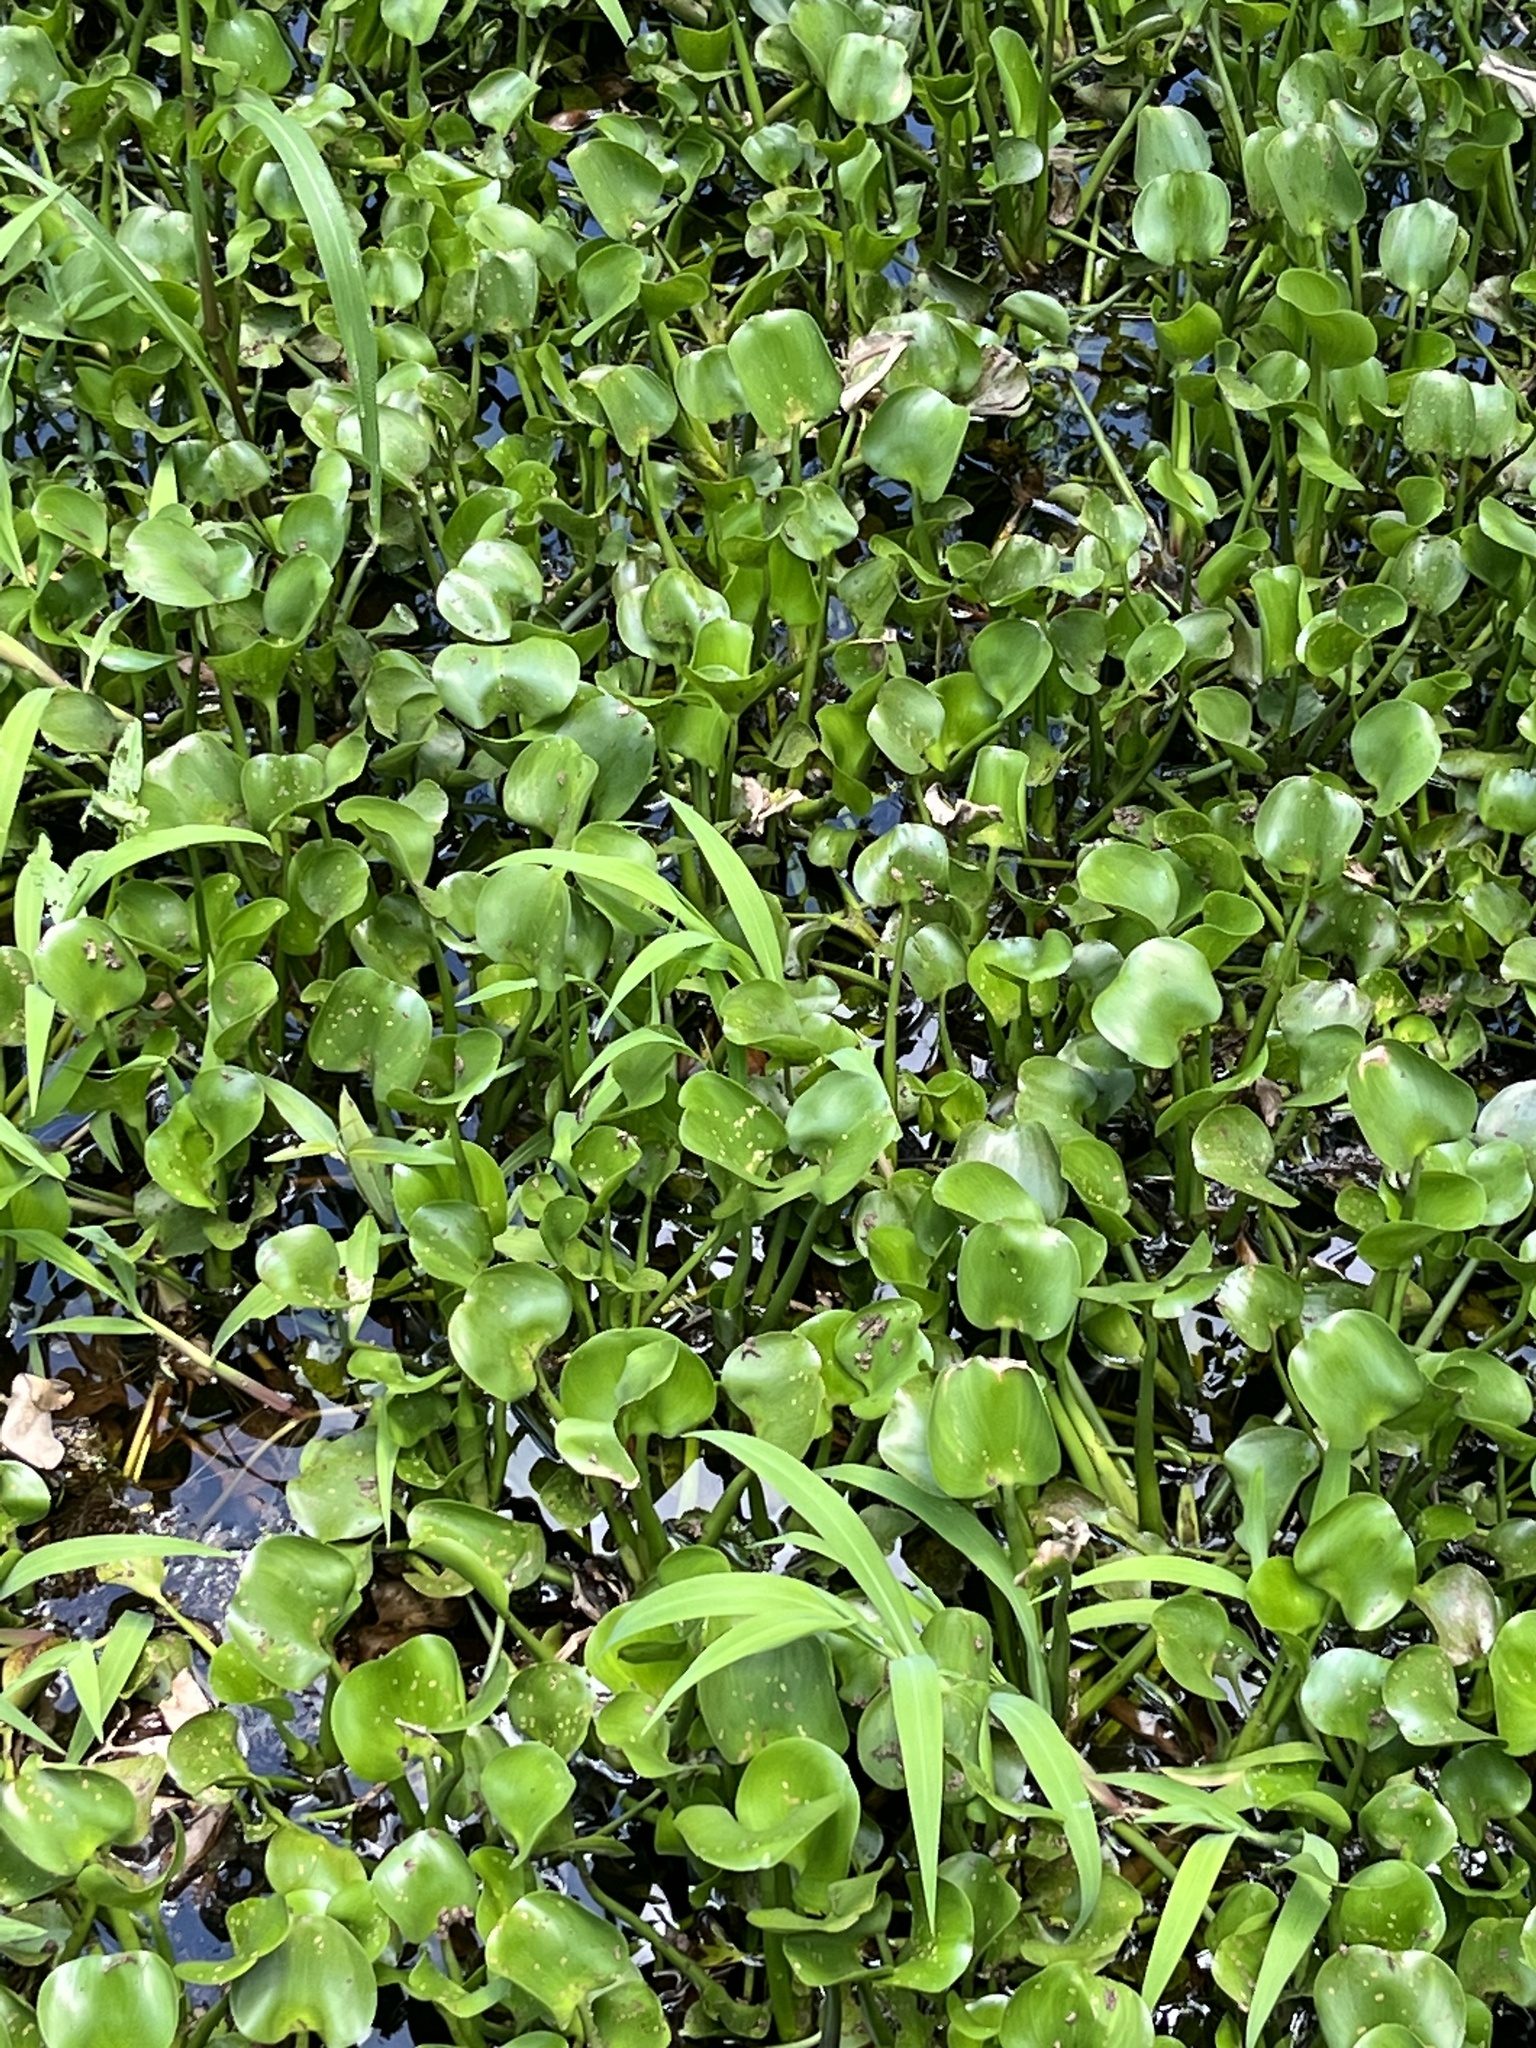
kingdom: Plantae
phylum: Tracheophyta
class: Liliopsida
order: Commelinales
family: Pontederiaceae
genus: Pontederia
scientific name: Pontederia crassipes
